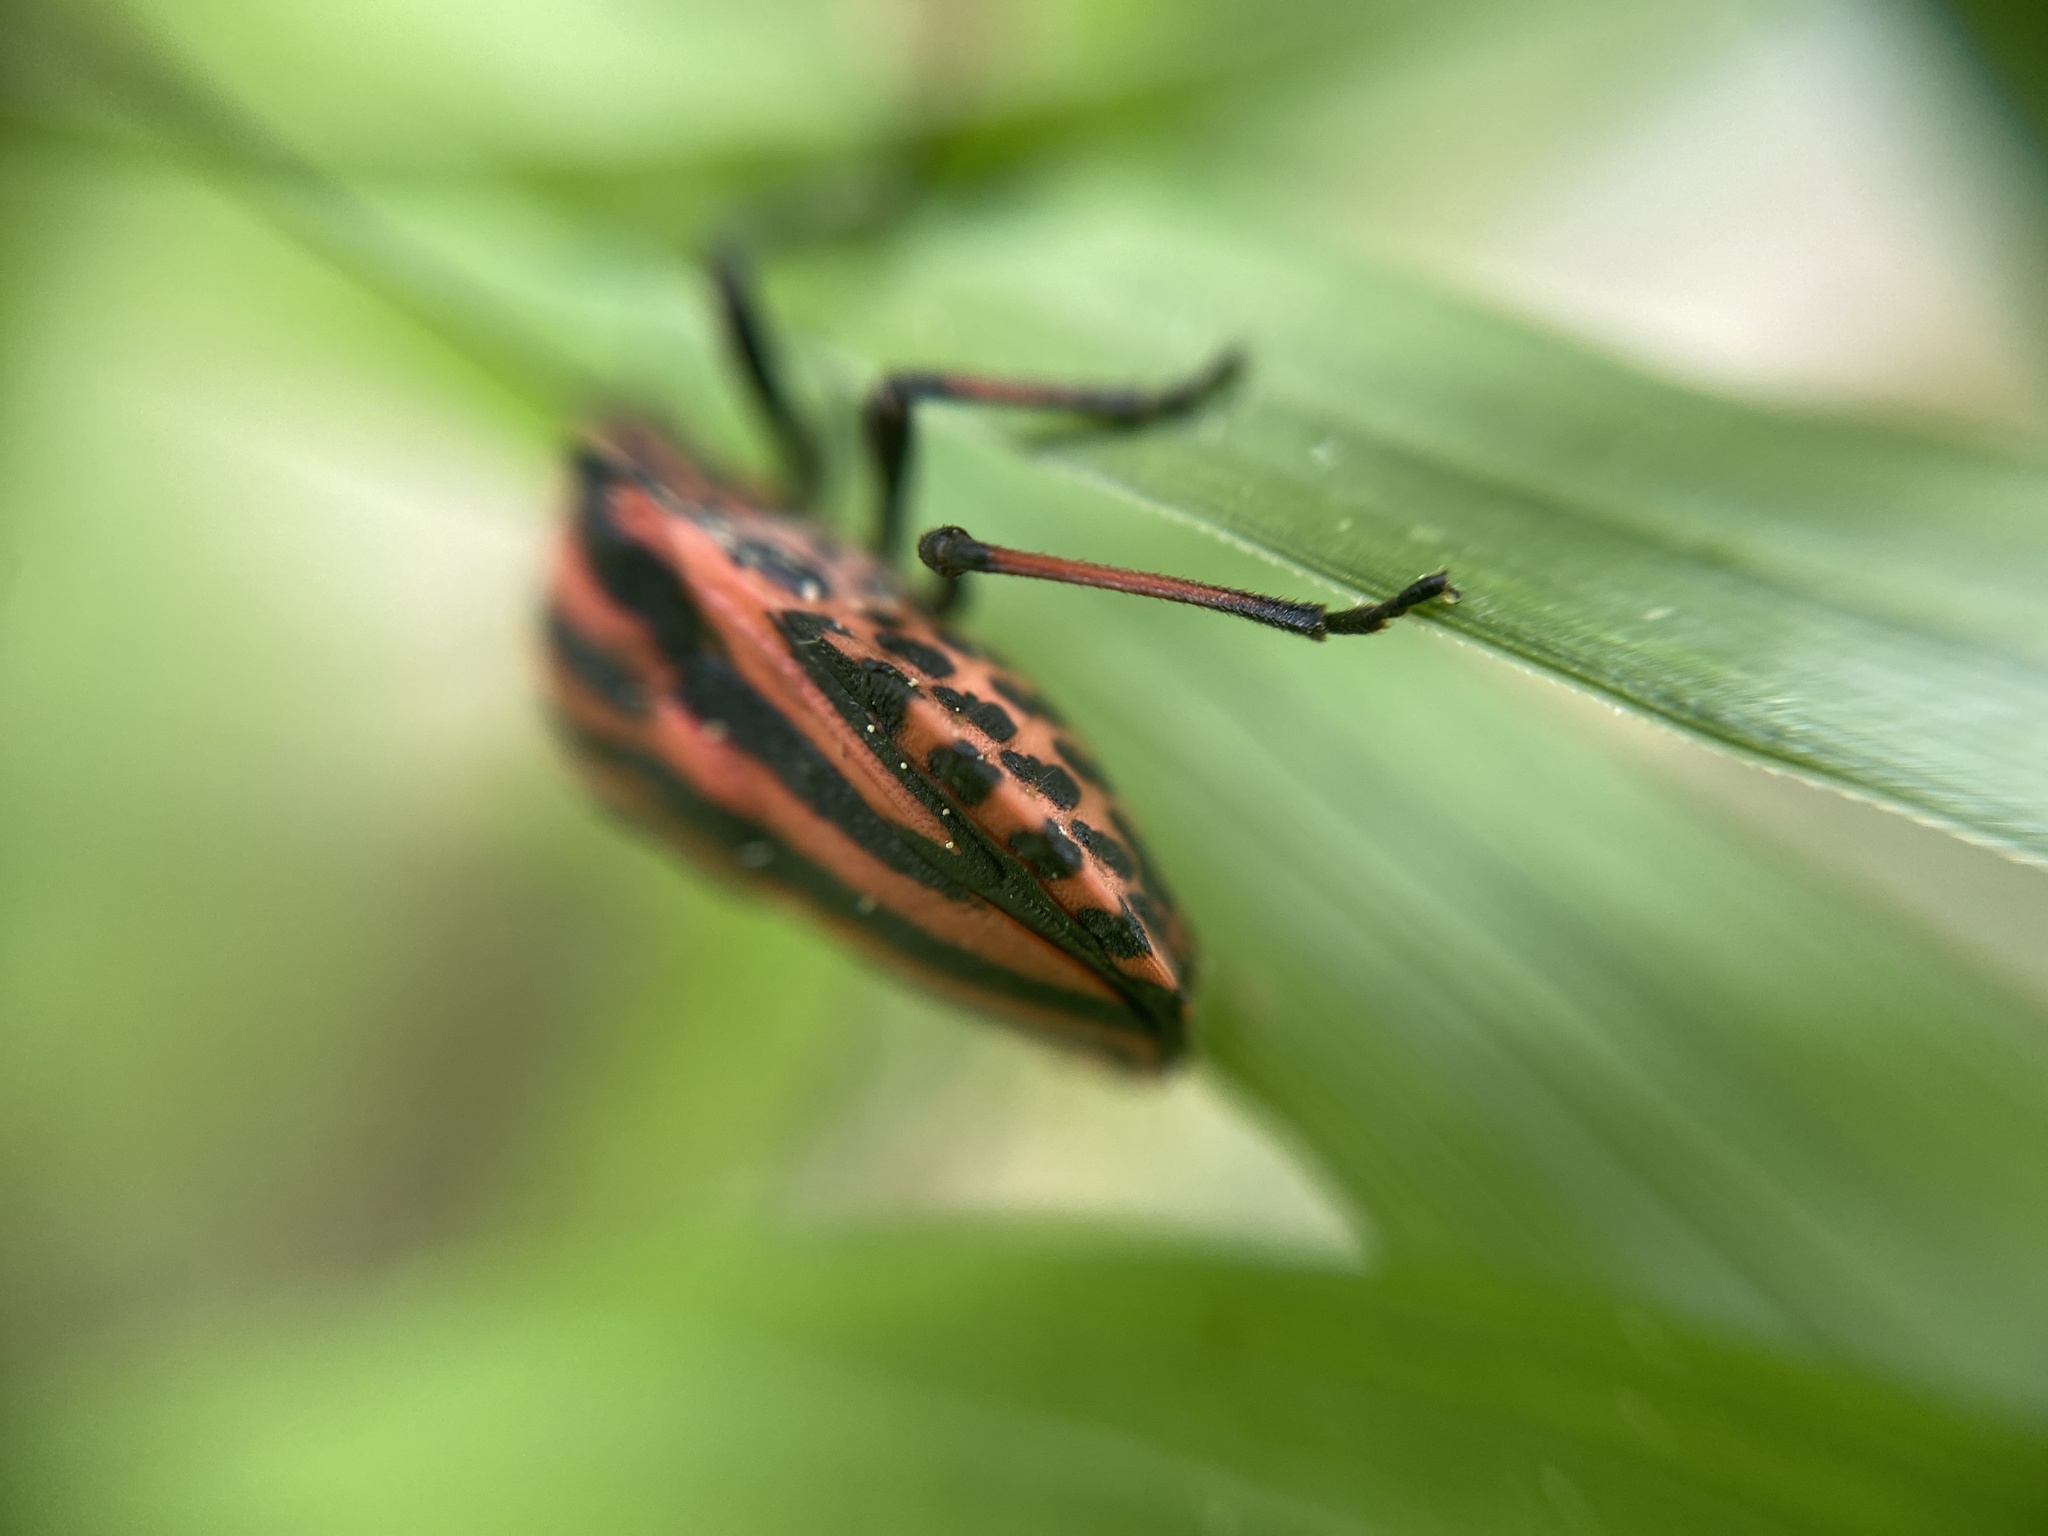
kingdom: Animalia
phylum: Arthropoda
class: Insecta
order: Hemiptera
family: Pentatomidae
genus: Graphosoma
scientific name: Graphosoma italicum
